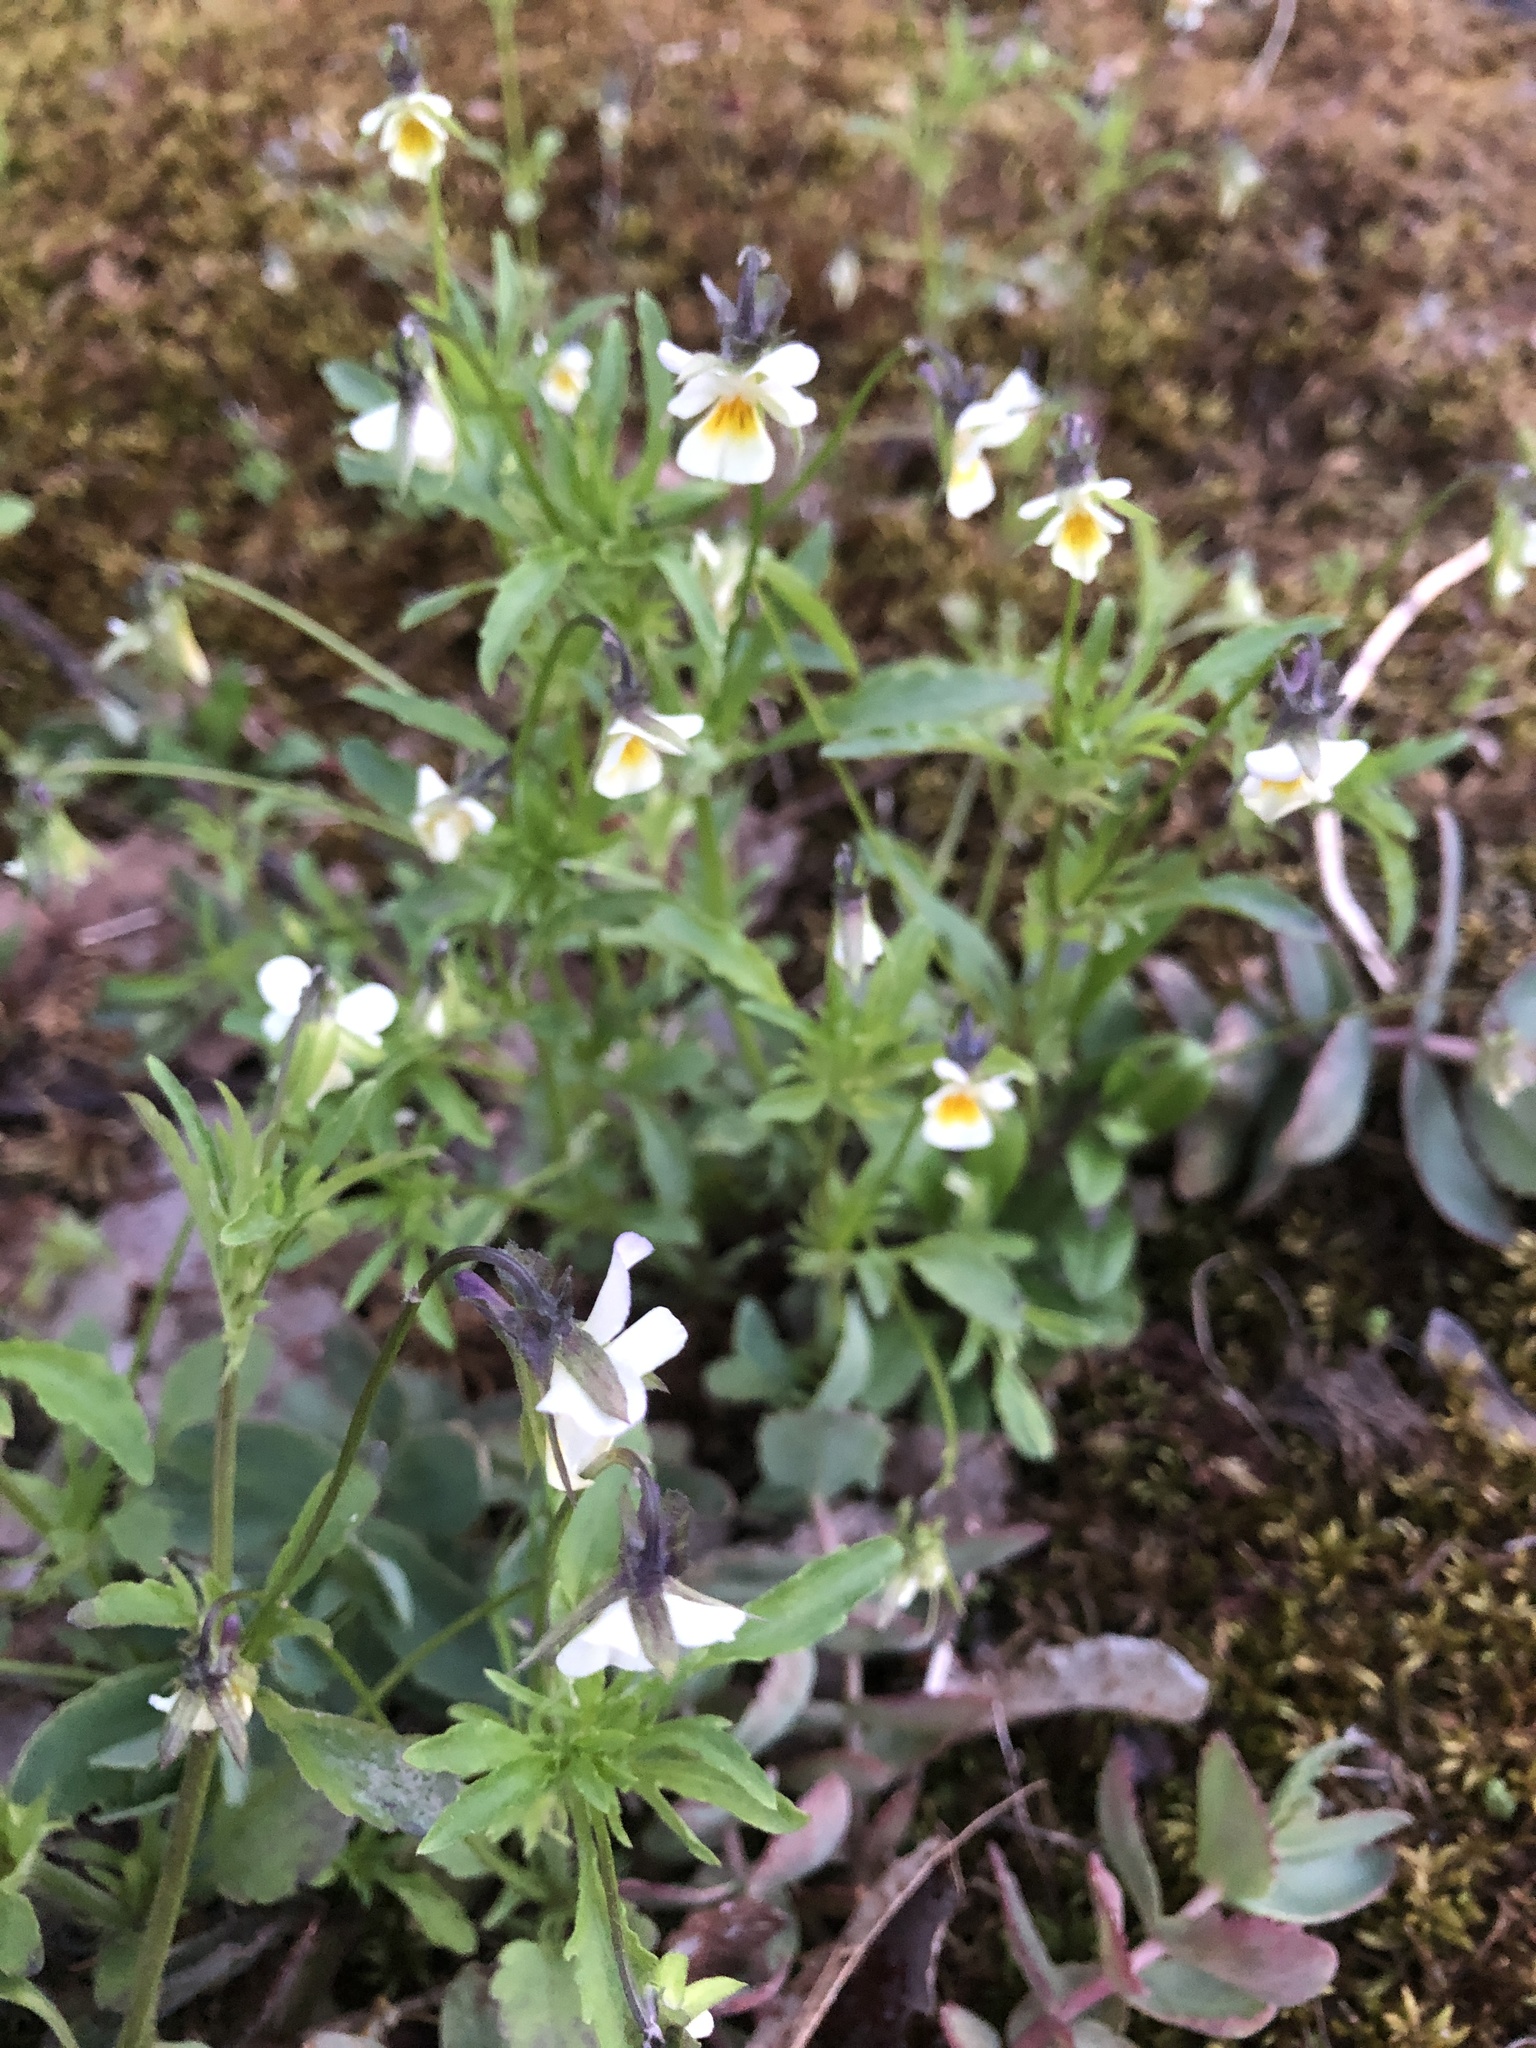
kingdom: Plantae
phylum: Tracheophyta
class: Magnoliopsida
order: Malpighiales
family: Violaceae
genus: Viola
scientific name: Viola arvensis
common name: Field pansy
